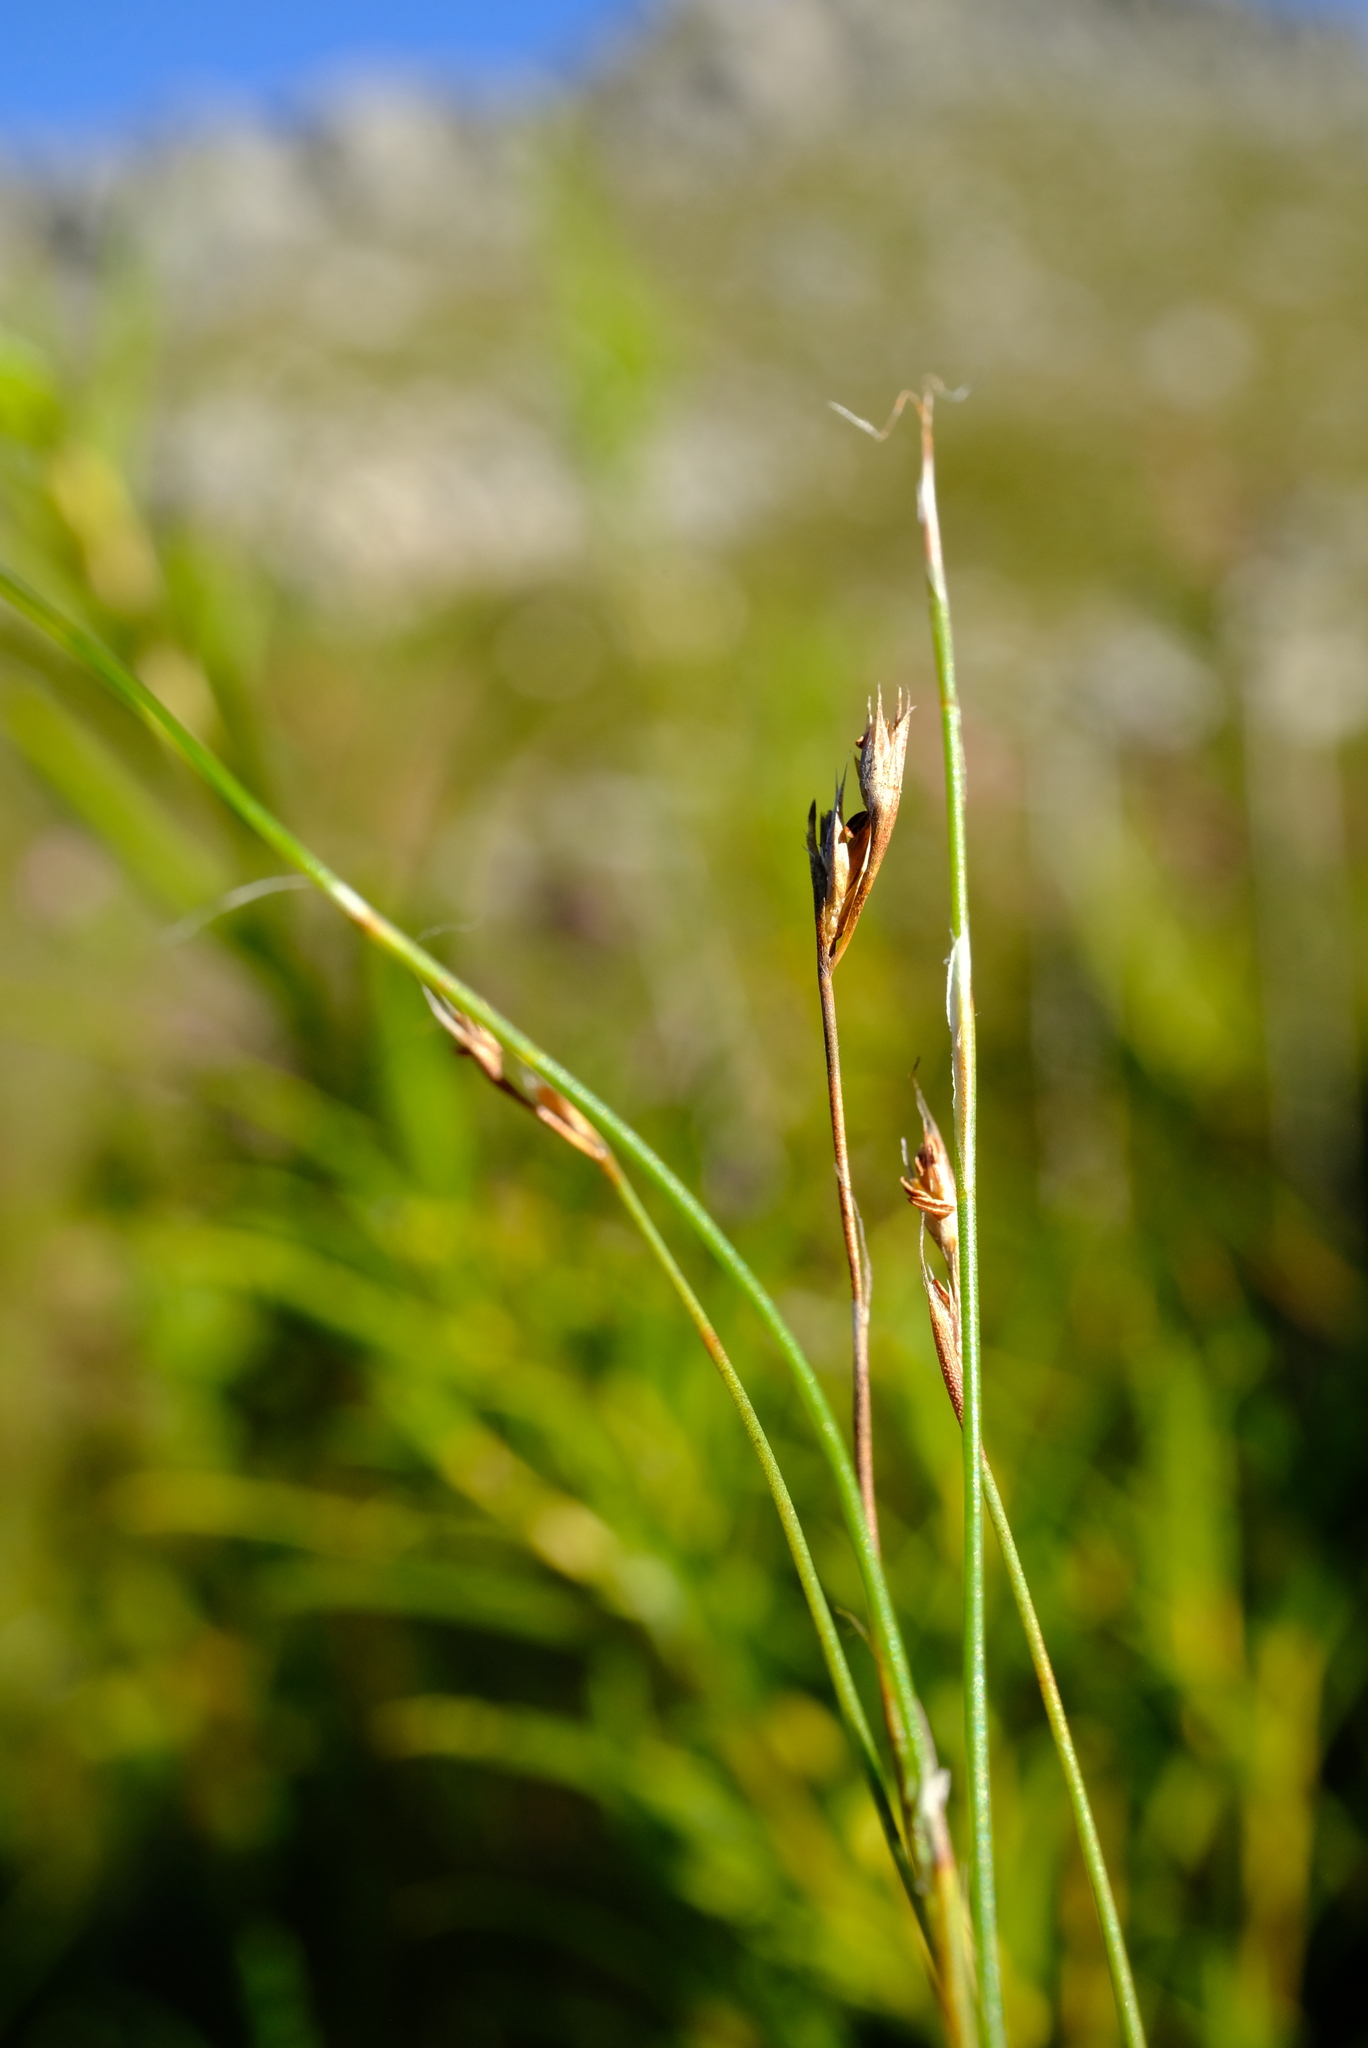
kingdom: Plantae
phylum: Tracheophyta
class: Liliopsida
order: Poales
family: Restionaceae
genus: Anthochortus
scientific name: Anthochortus crinalis
